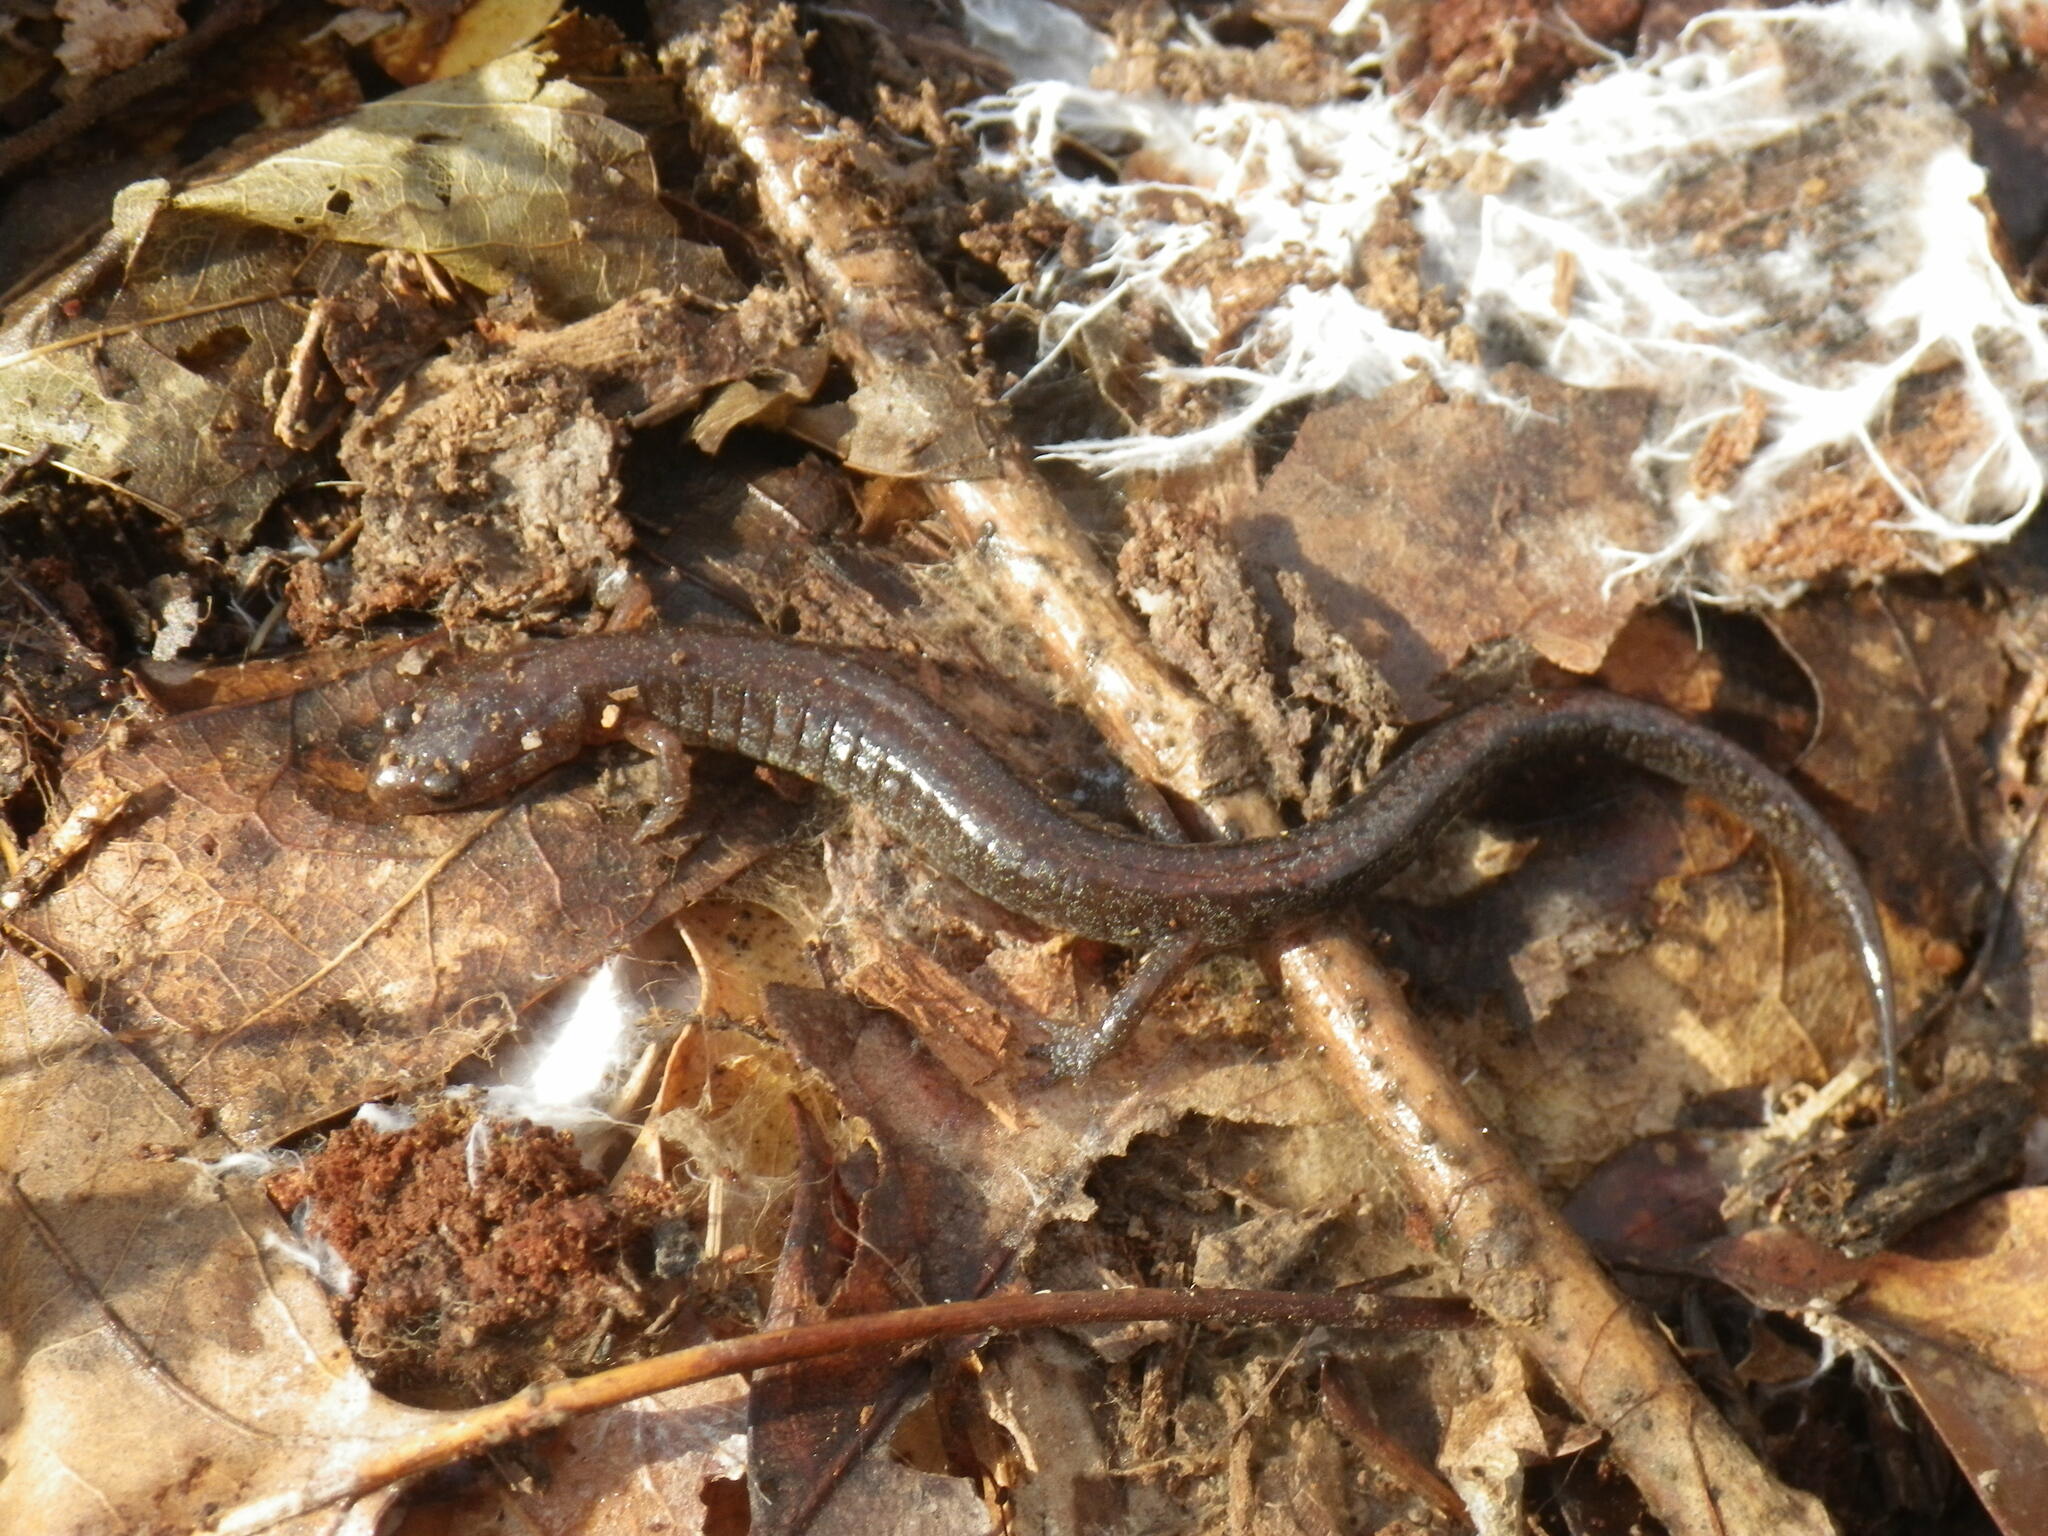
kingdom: Animalia
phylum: Chordata
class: Amphibia
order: Caudata
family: Plethodontidae
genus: Plethodon
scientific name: Plethodon dorsalis
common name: Northern zigzag salamander
